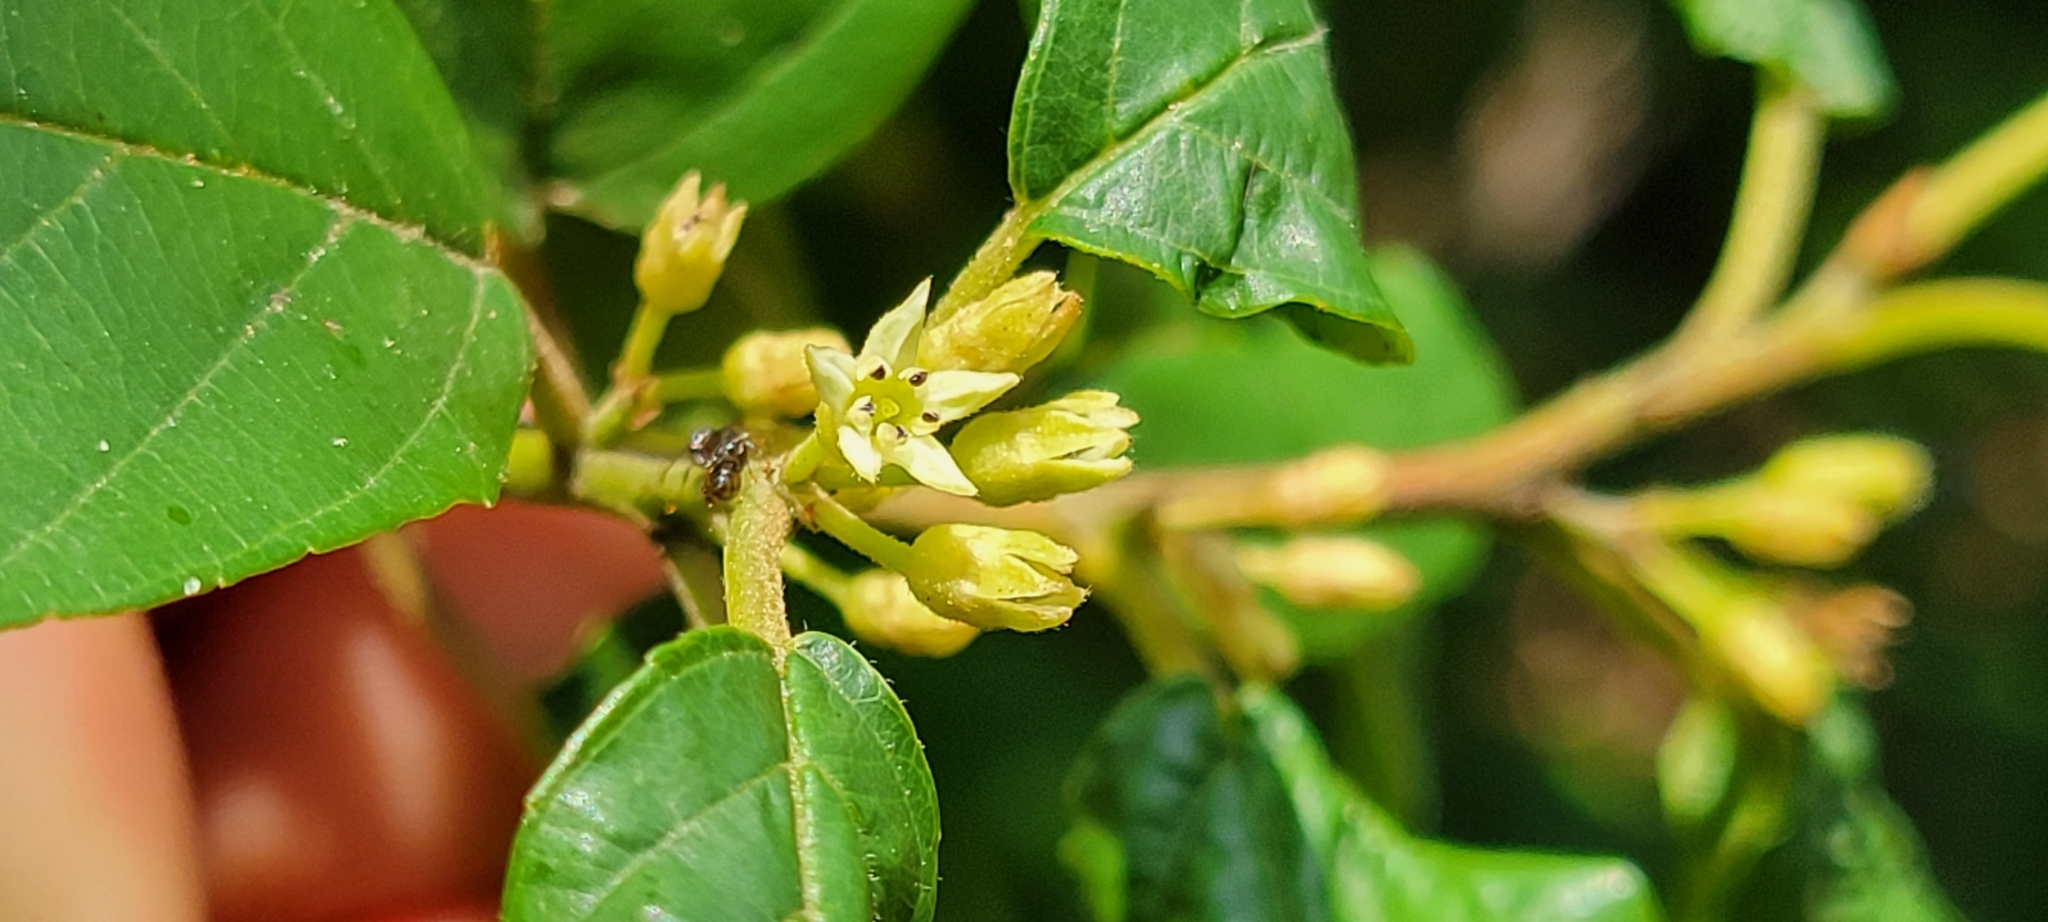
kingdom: Plantae
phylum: Tracheophyta
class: Magnoliopsida
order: Rosales
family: Rhamnaceae
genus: Frangula
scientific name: Frangula caroliniana
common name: Carolina buckthorn
